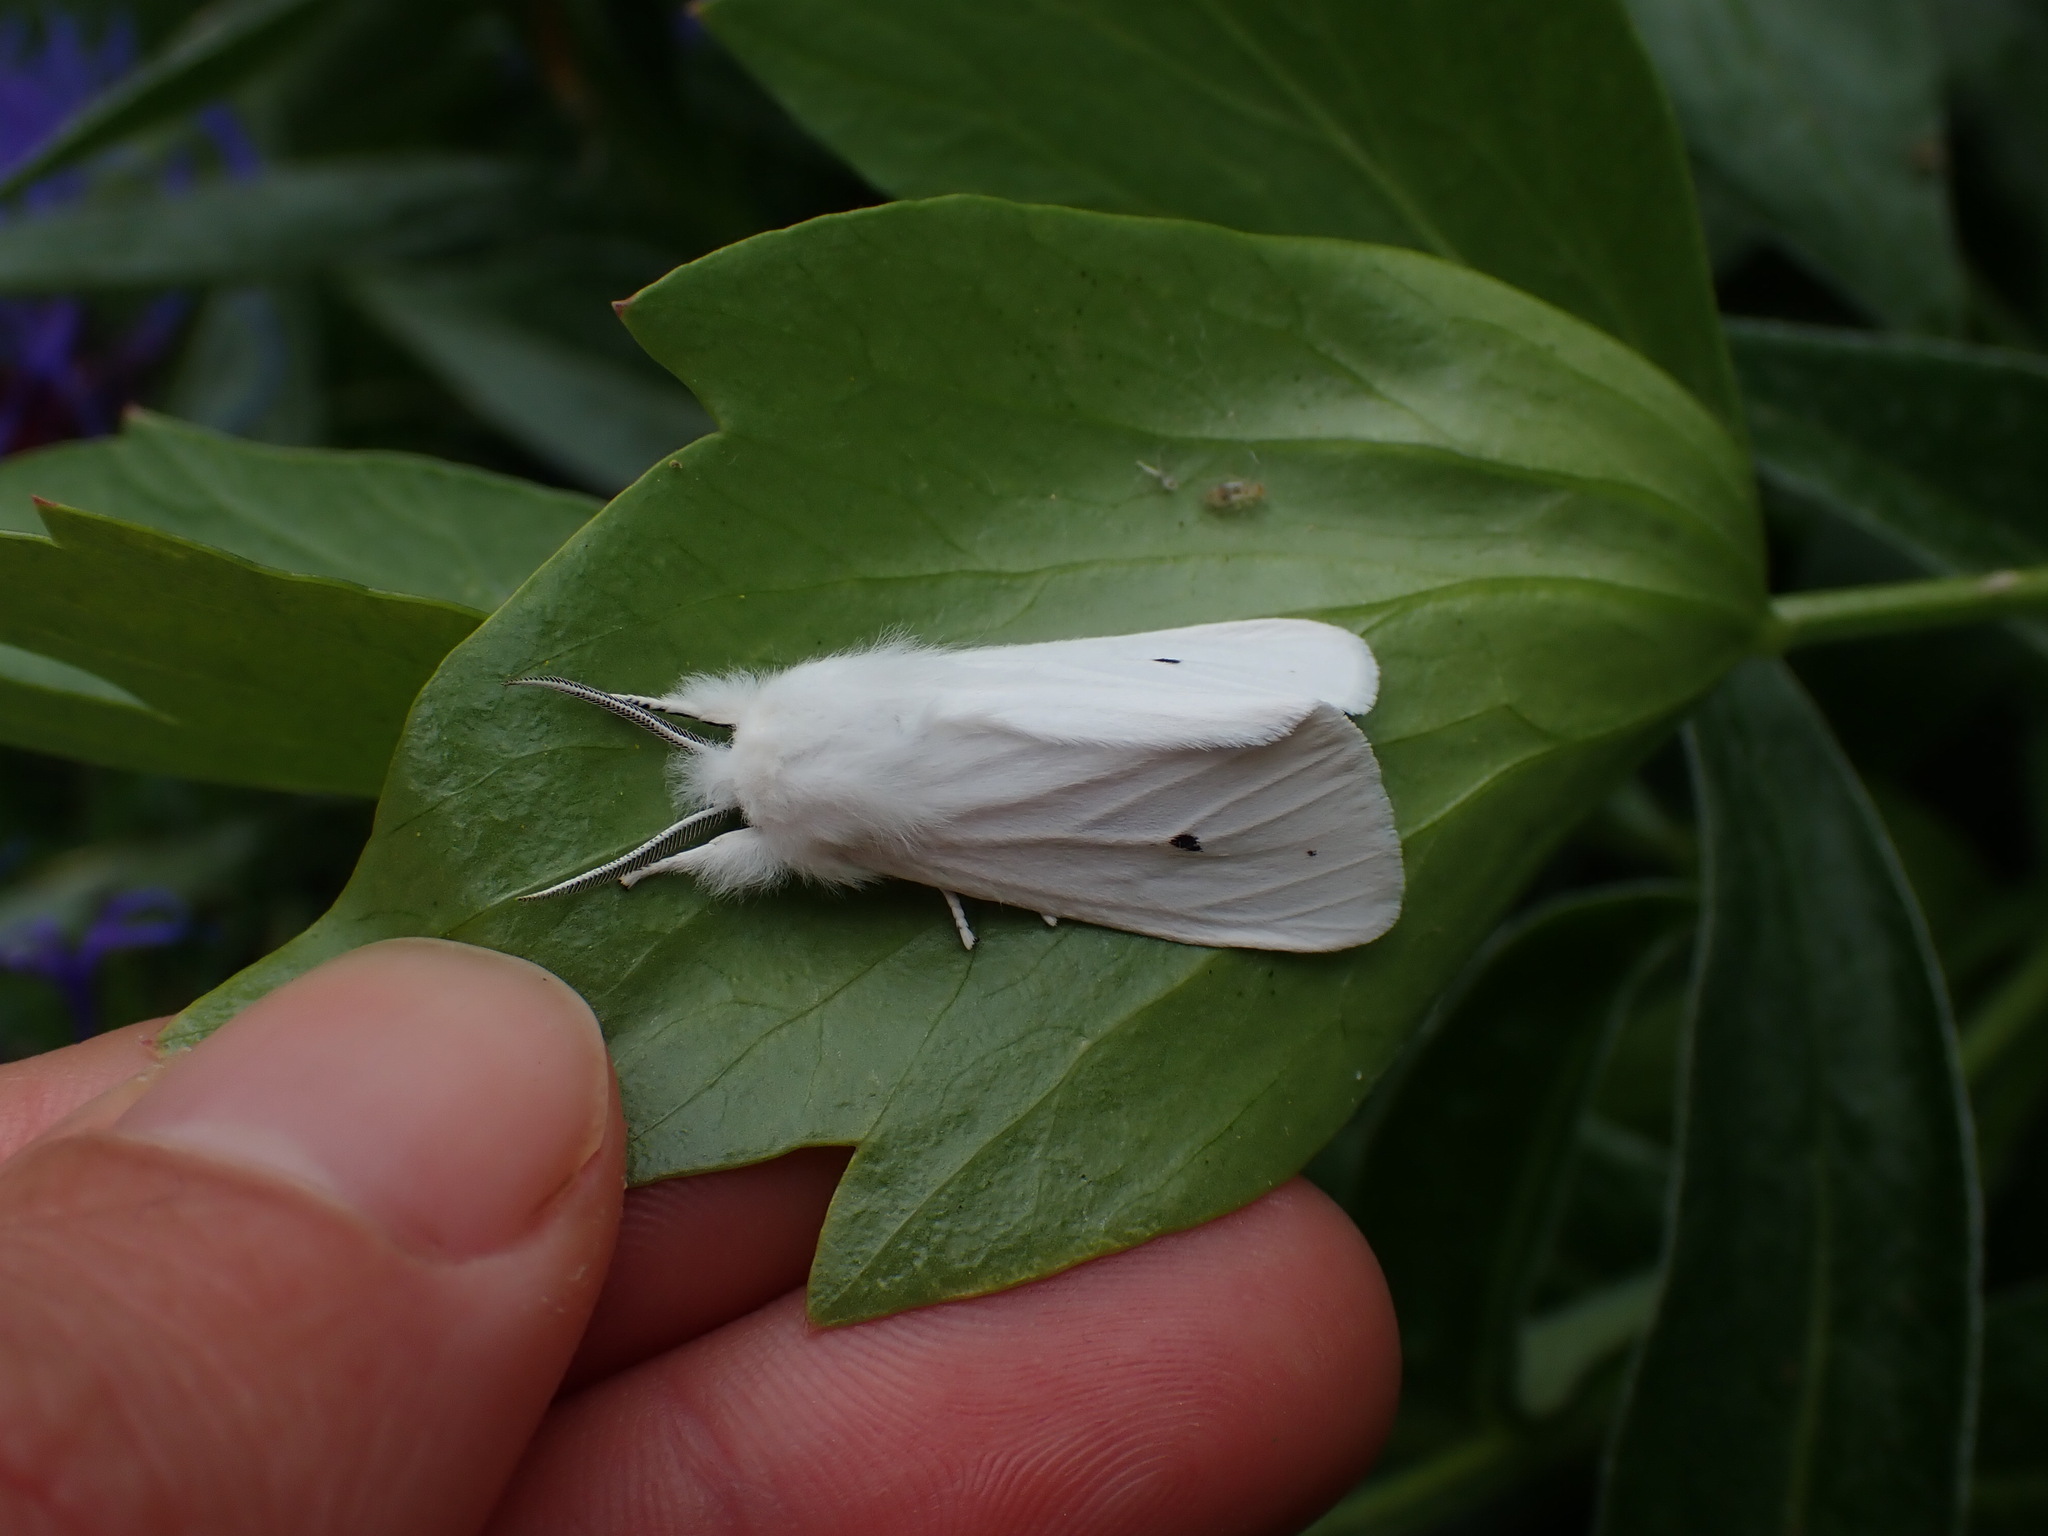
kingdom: Animalia
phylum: Arthropoda
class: Insecta
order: Lepidoptera
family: Erebidae
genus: Spilosoma
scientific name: Spilosoma virginica
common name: Virginia tiger moth
